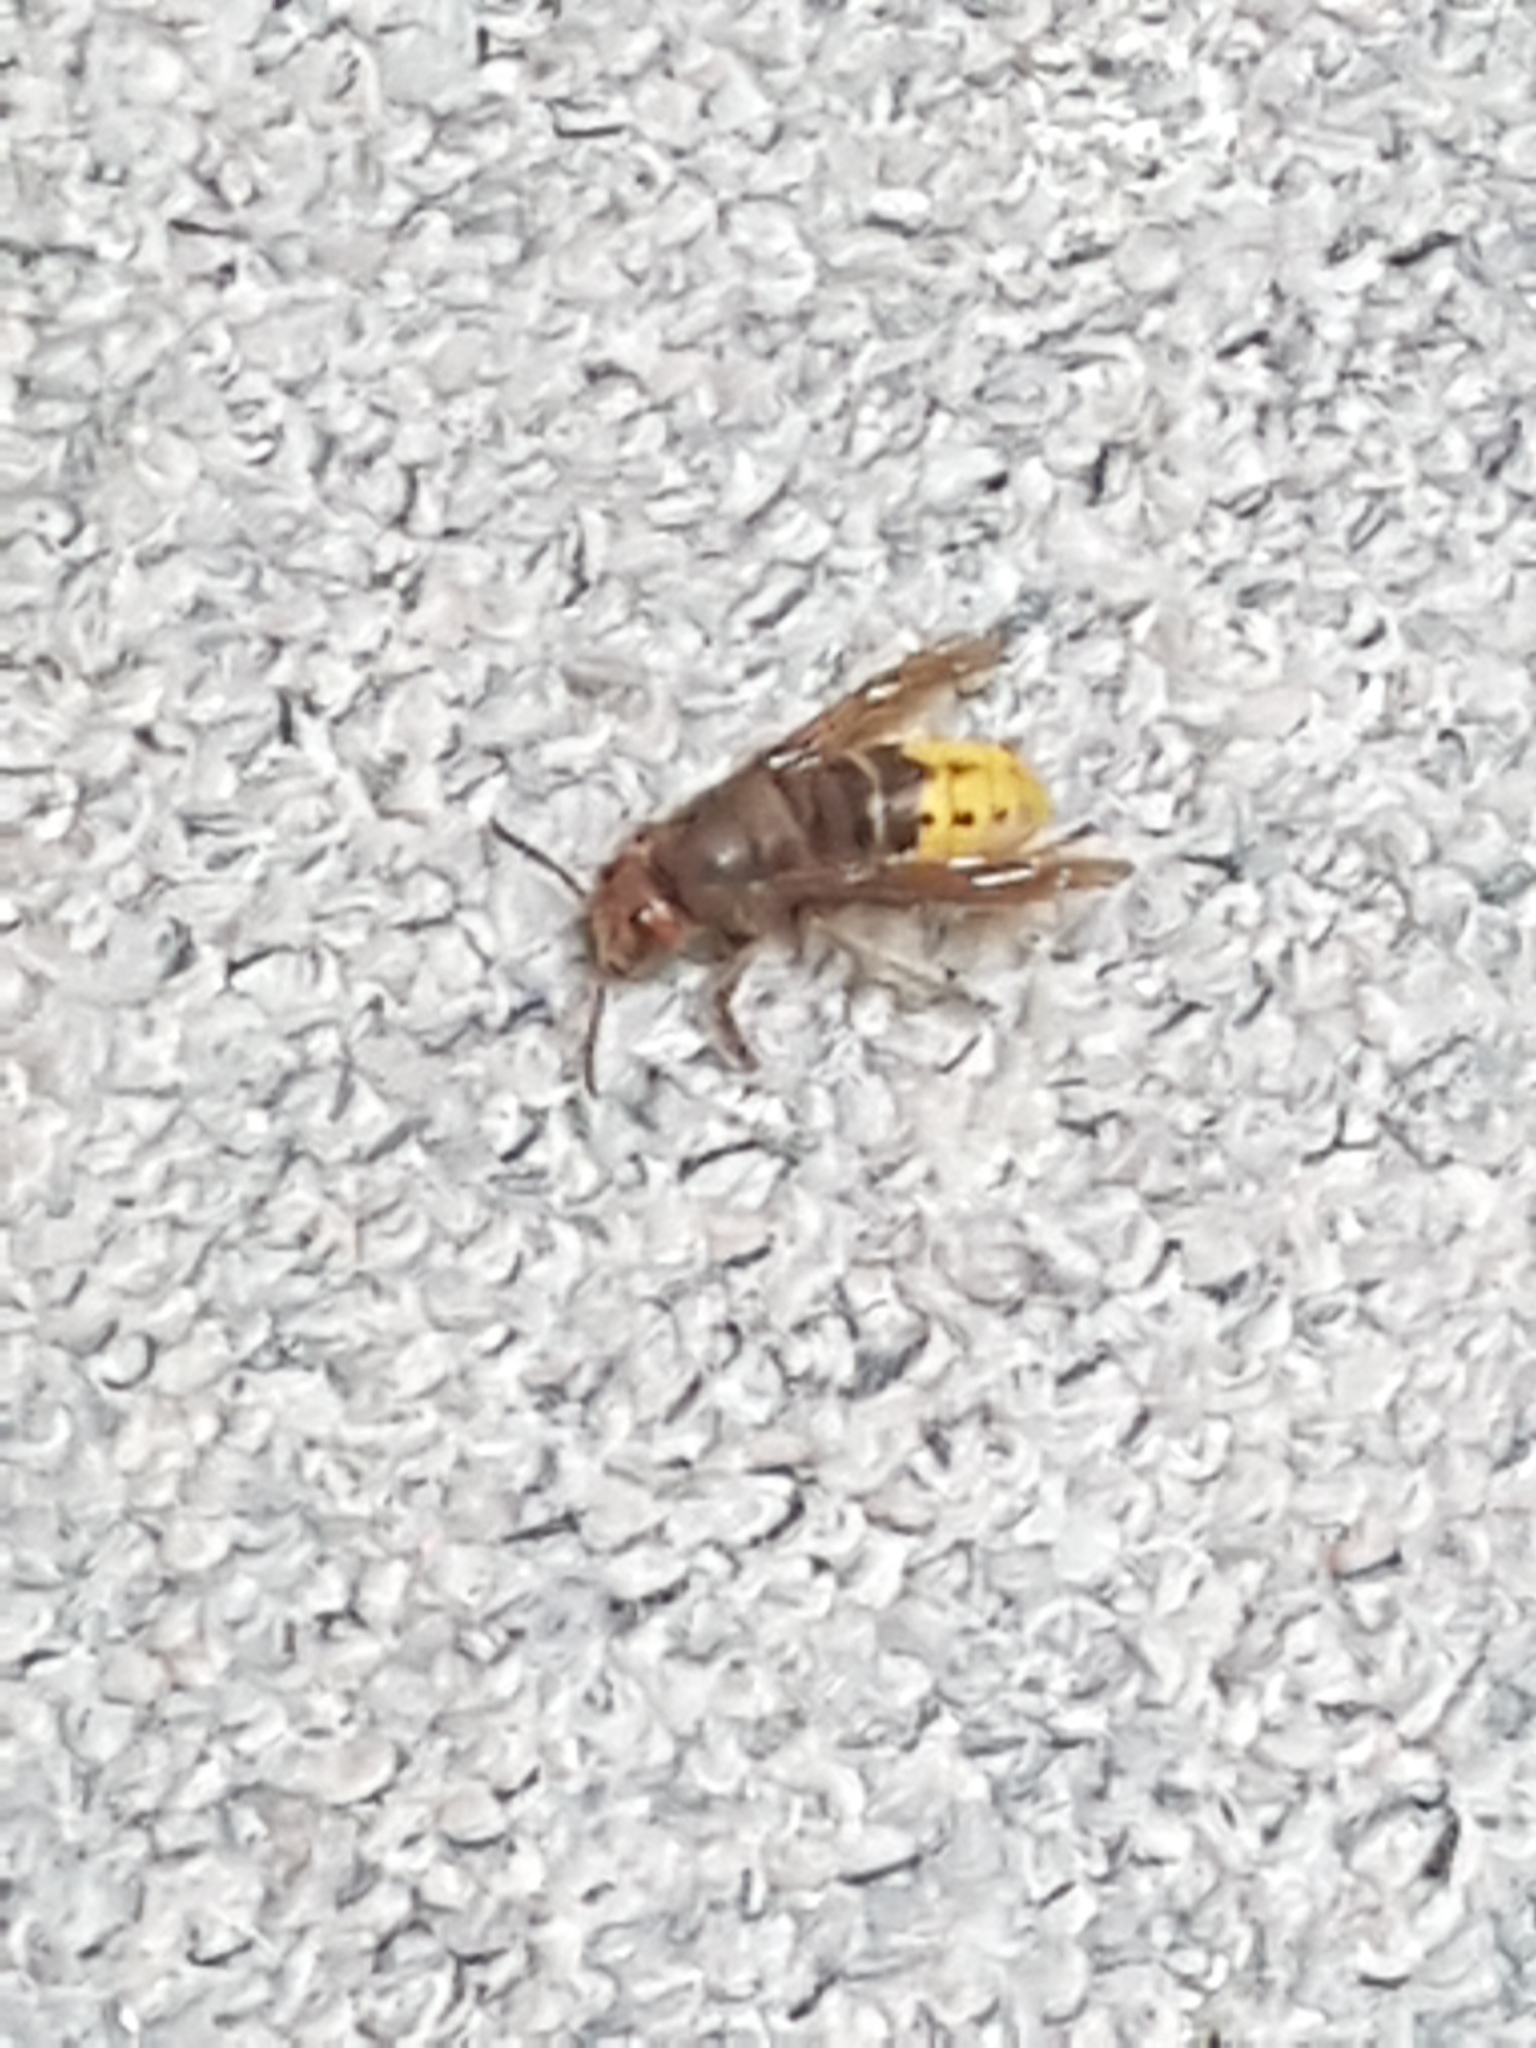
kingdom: Animalia
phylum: Arthropoda
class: Insecta
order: Hymenoptera
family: Vespidae
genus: Vespa
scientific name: Vespa crabro
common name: Hornet
